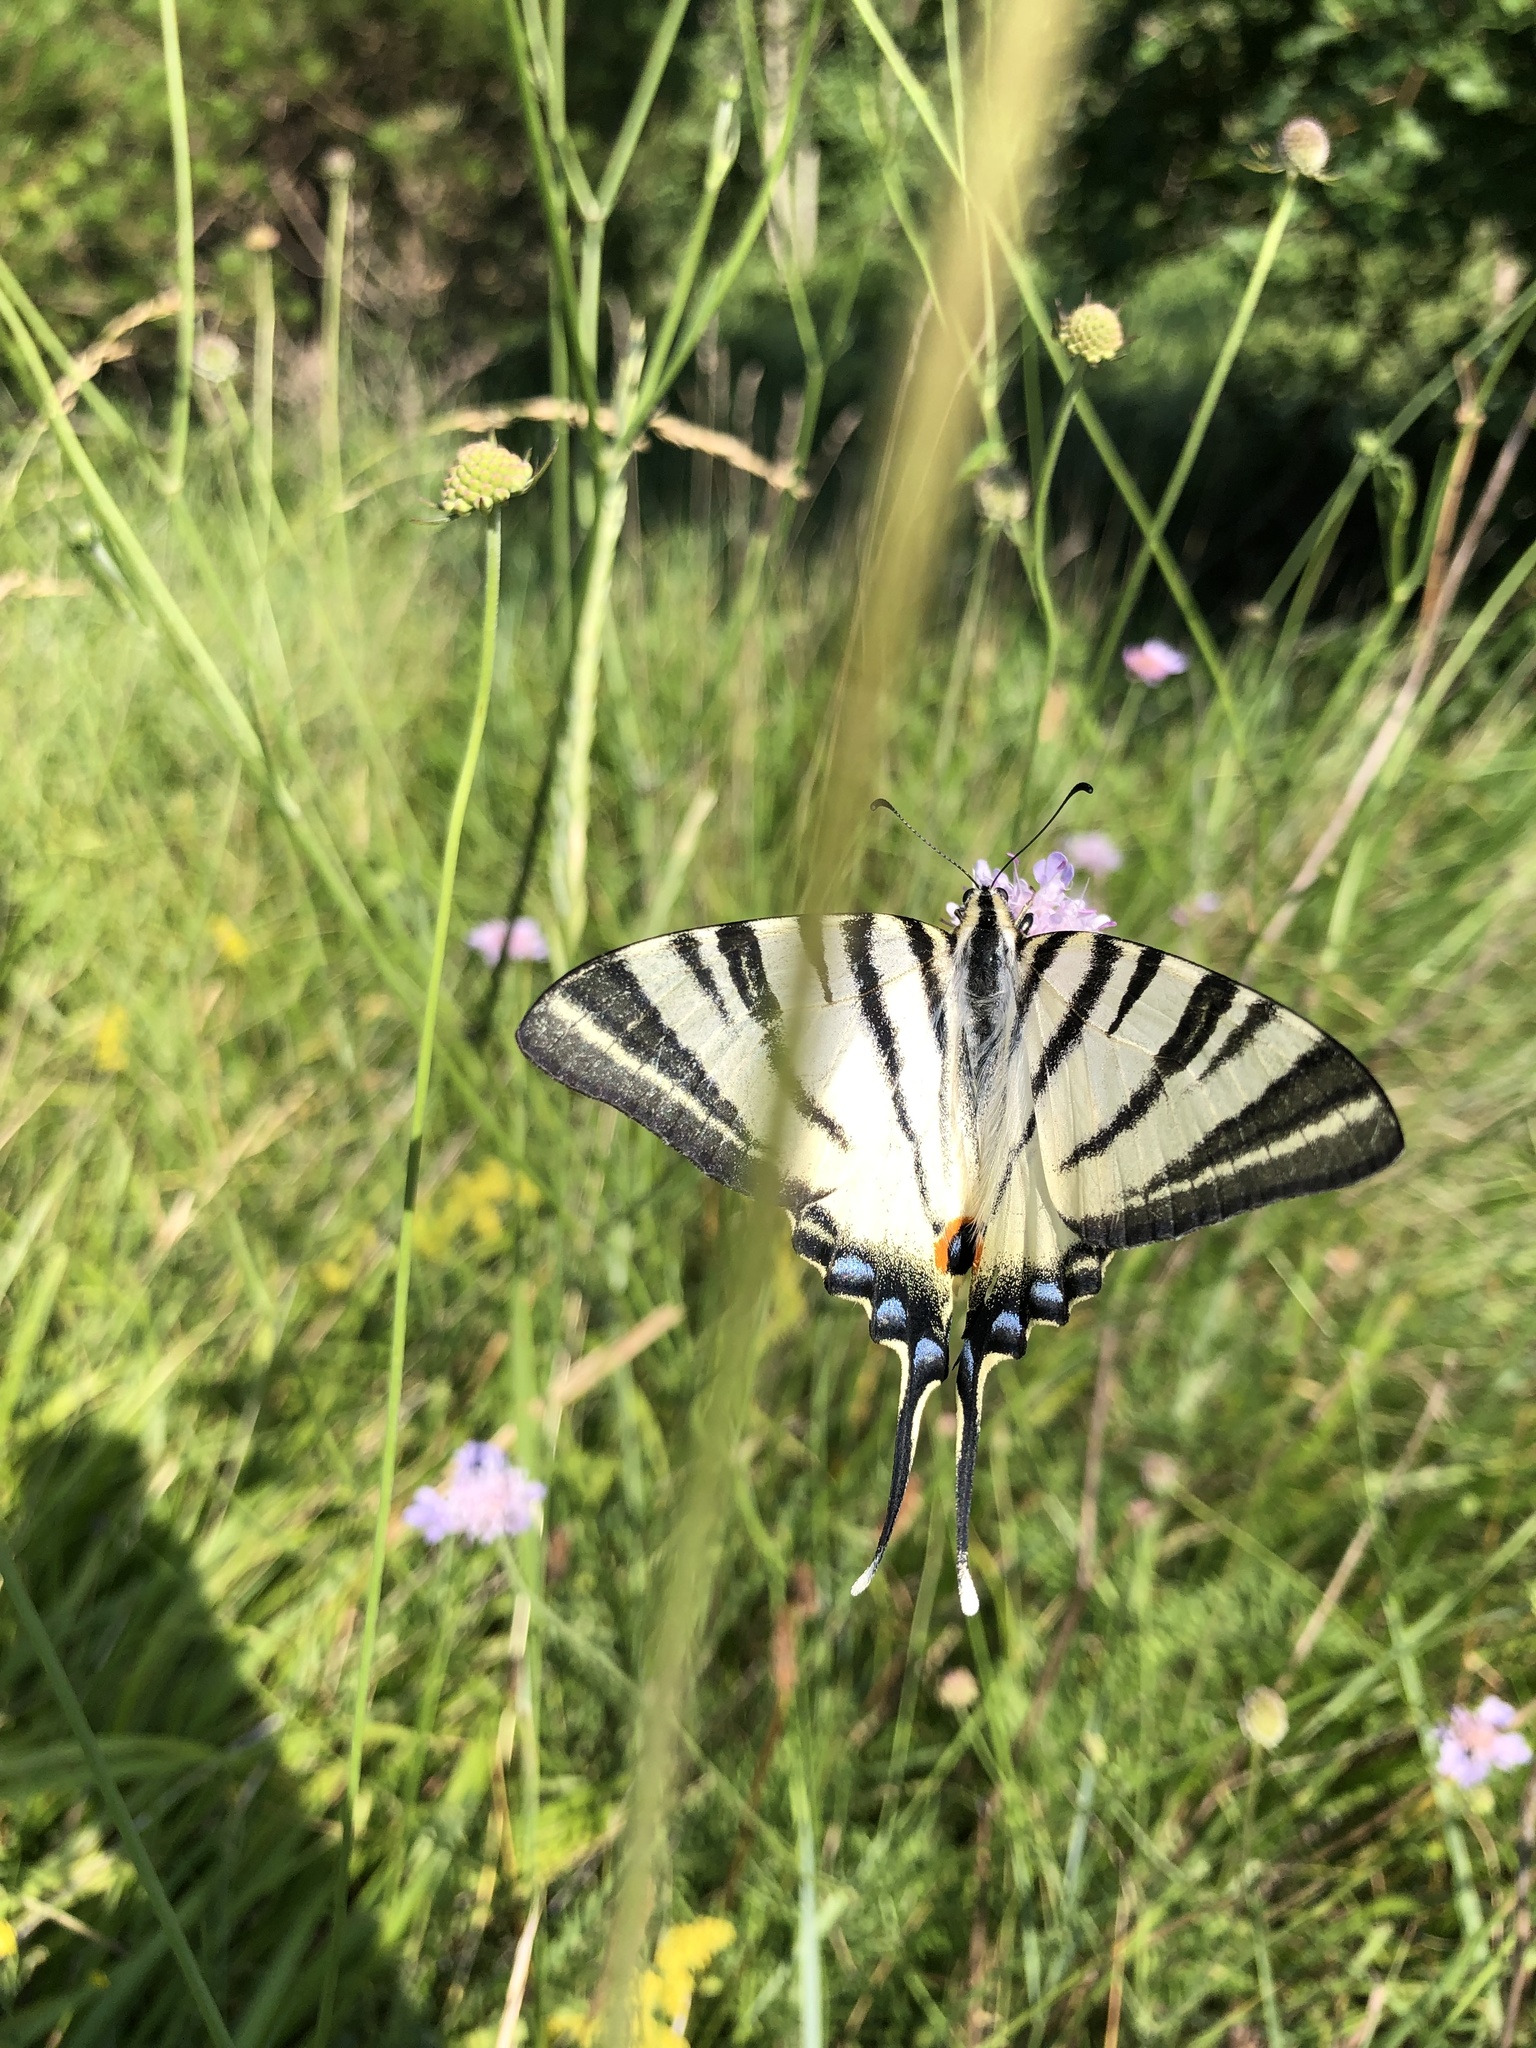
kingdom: Animalia
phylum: Arthropoda
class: Insecta
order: Lepidoptera
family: Papilionidae
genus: Iphiclides
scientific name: Iphiclides podalirius
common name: Scarce swallowtail
